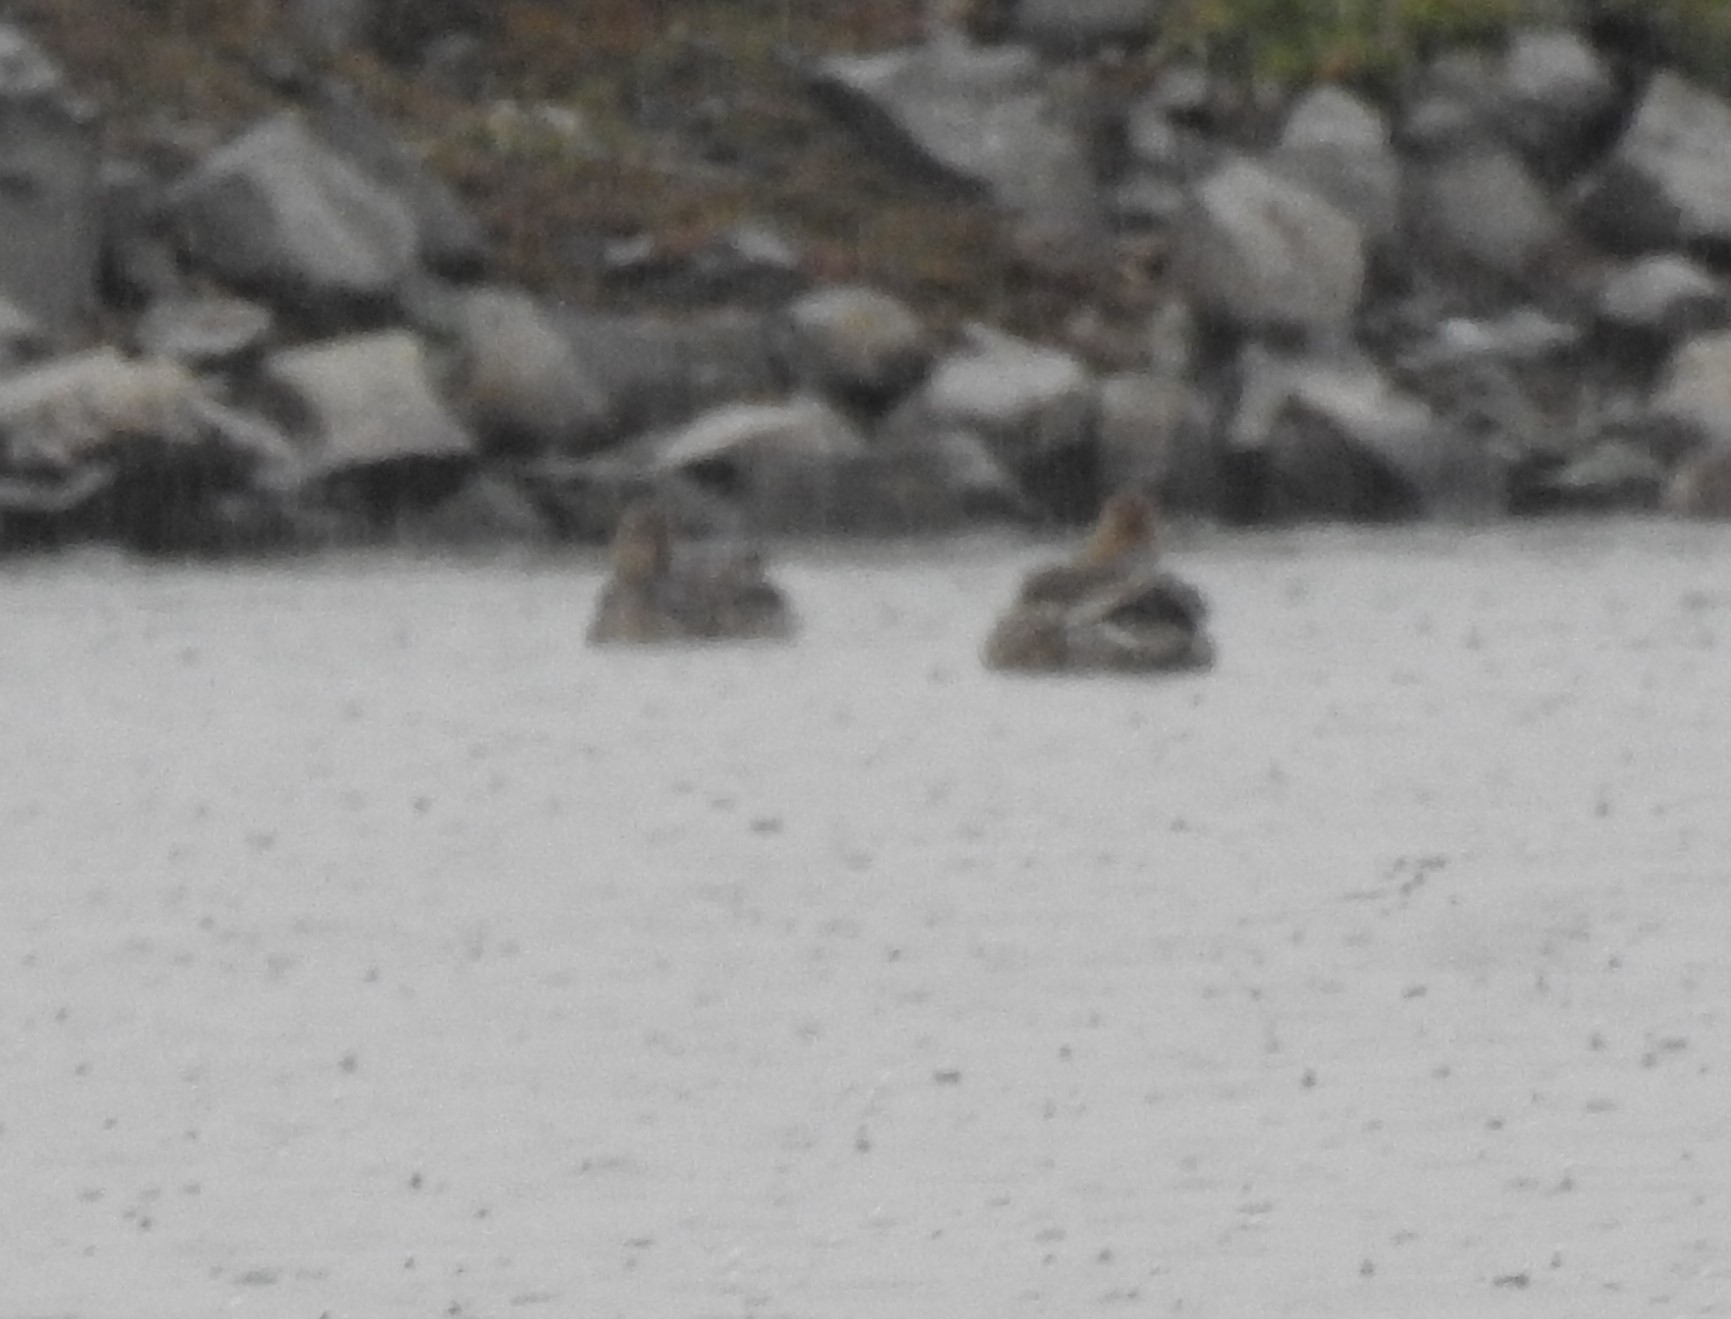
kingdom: Animalia
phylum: Chordata
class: Aves
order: Anseriformes
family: Anatidae
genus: Anas
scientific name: Anas acuta
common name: Northern pintail
